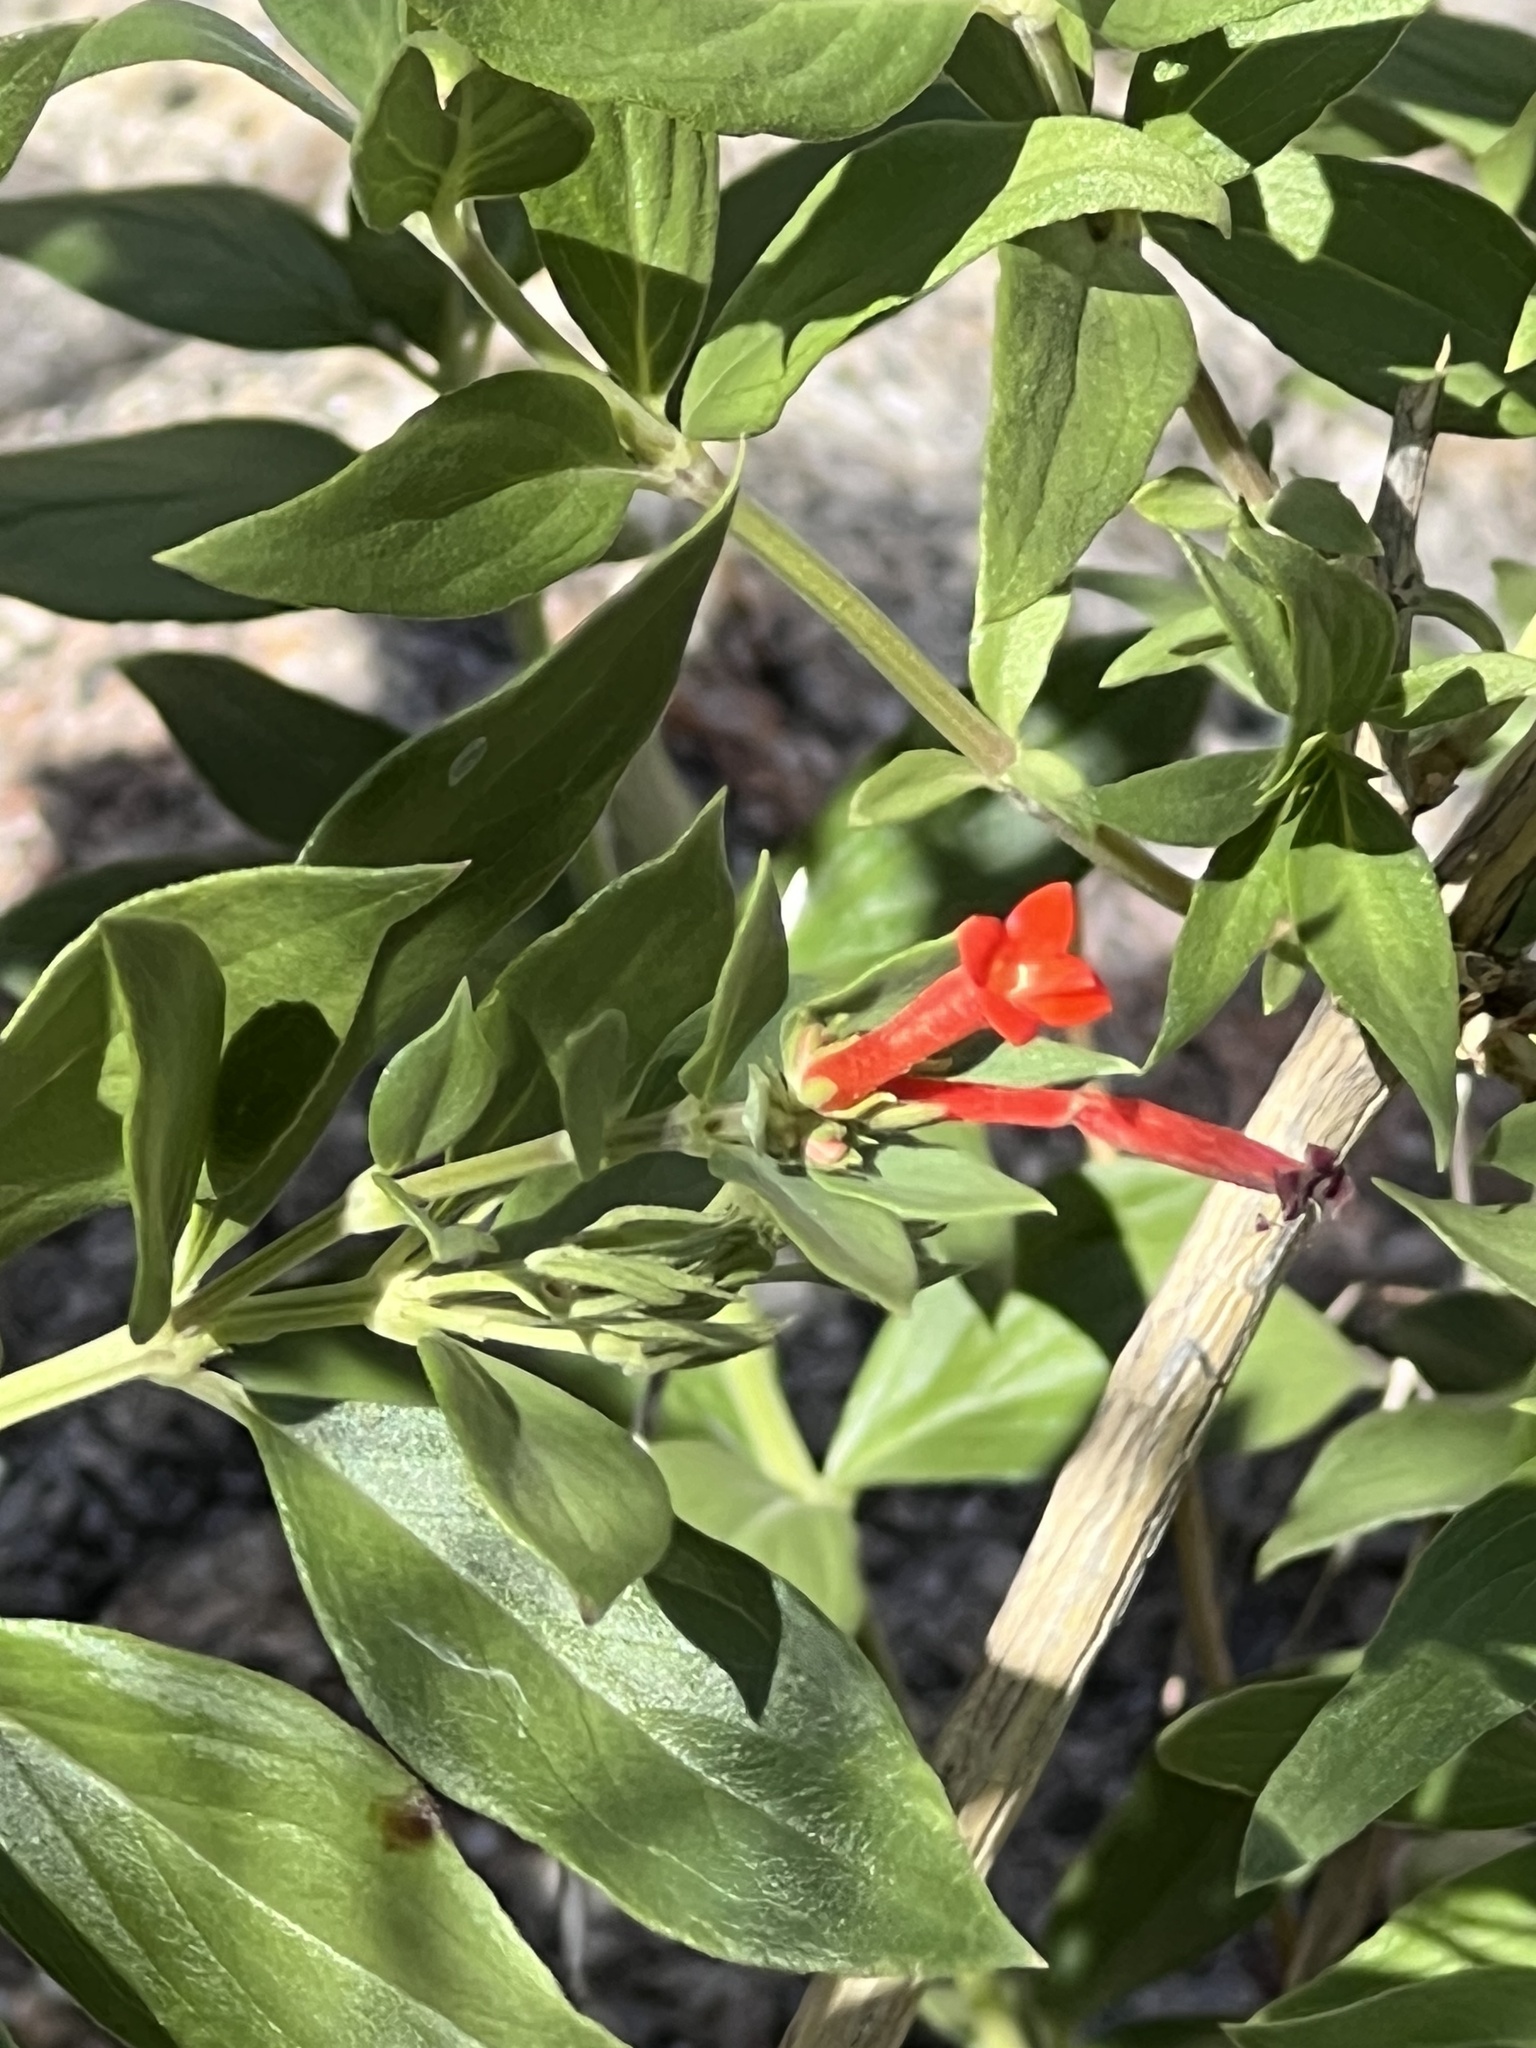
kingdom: Plantae
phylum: Tracheophyta
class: Magnoliopsida
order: Gentianales
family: Rubiaceae
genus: Bouvardia
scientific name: Bouvardia ternifolia
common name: Scarlet bouvardia
